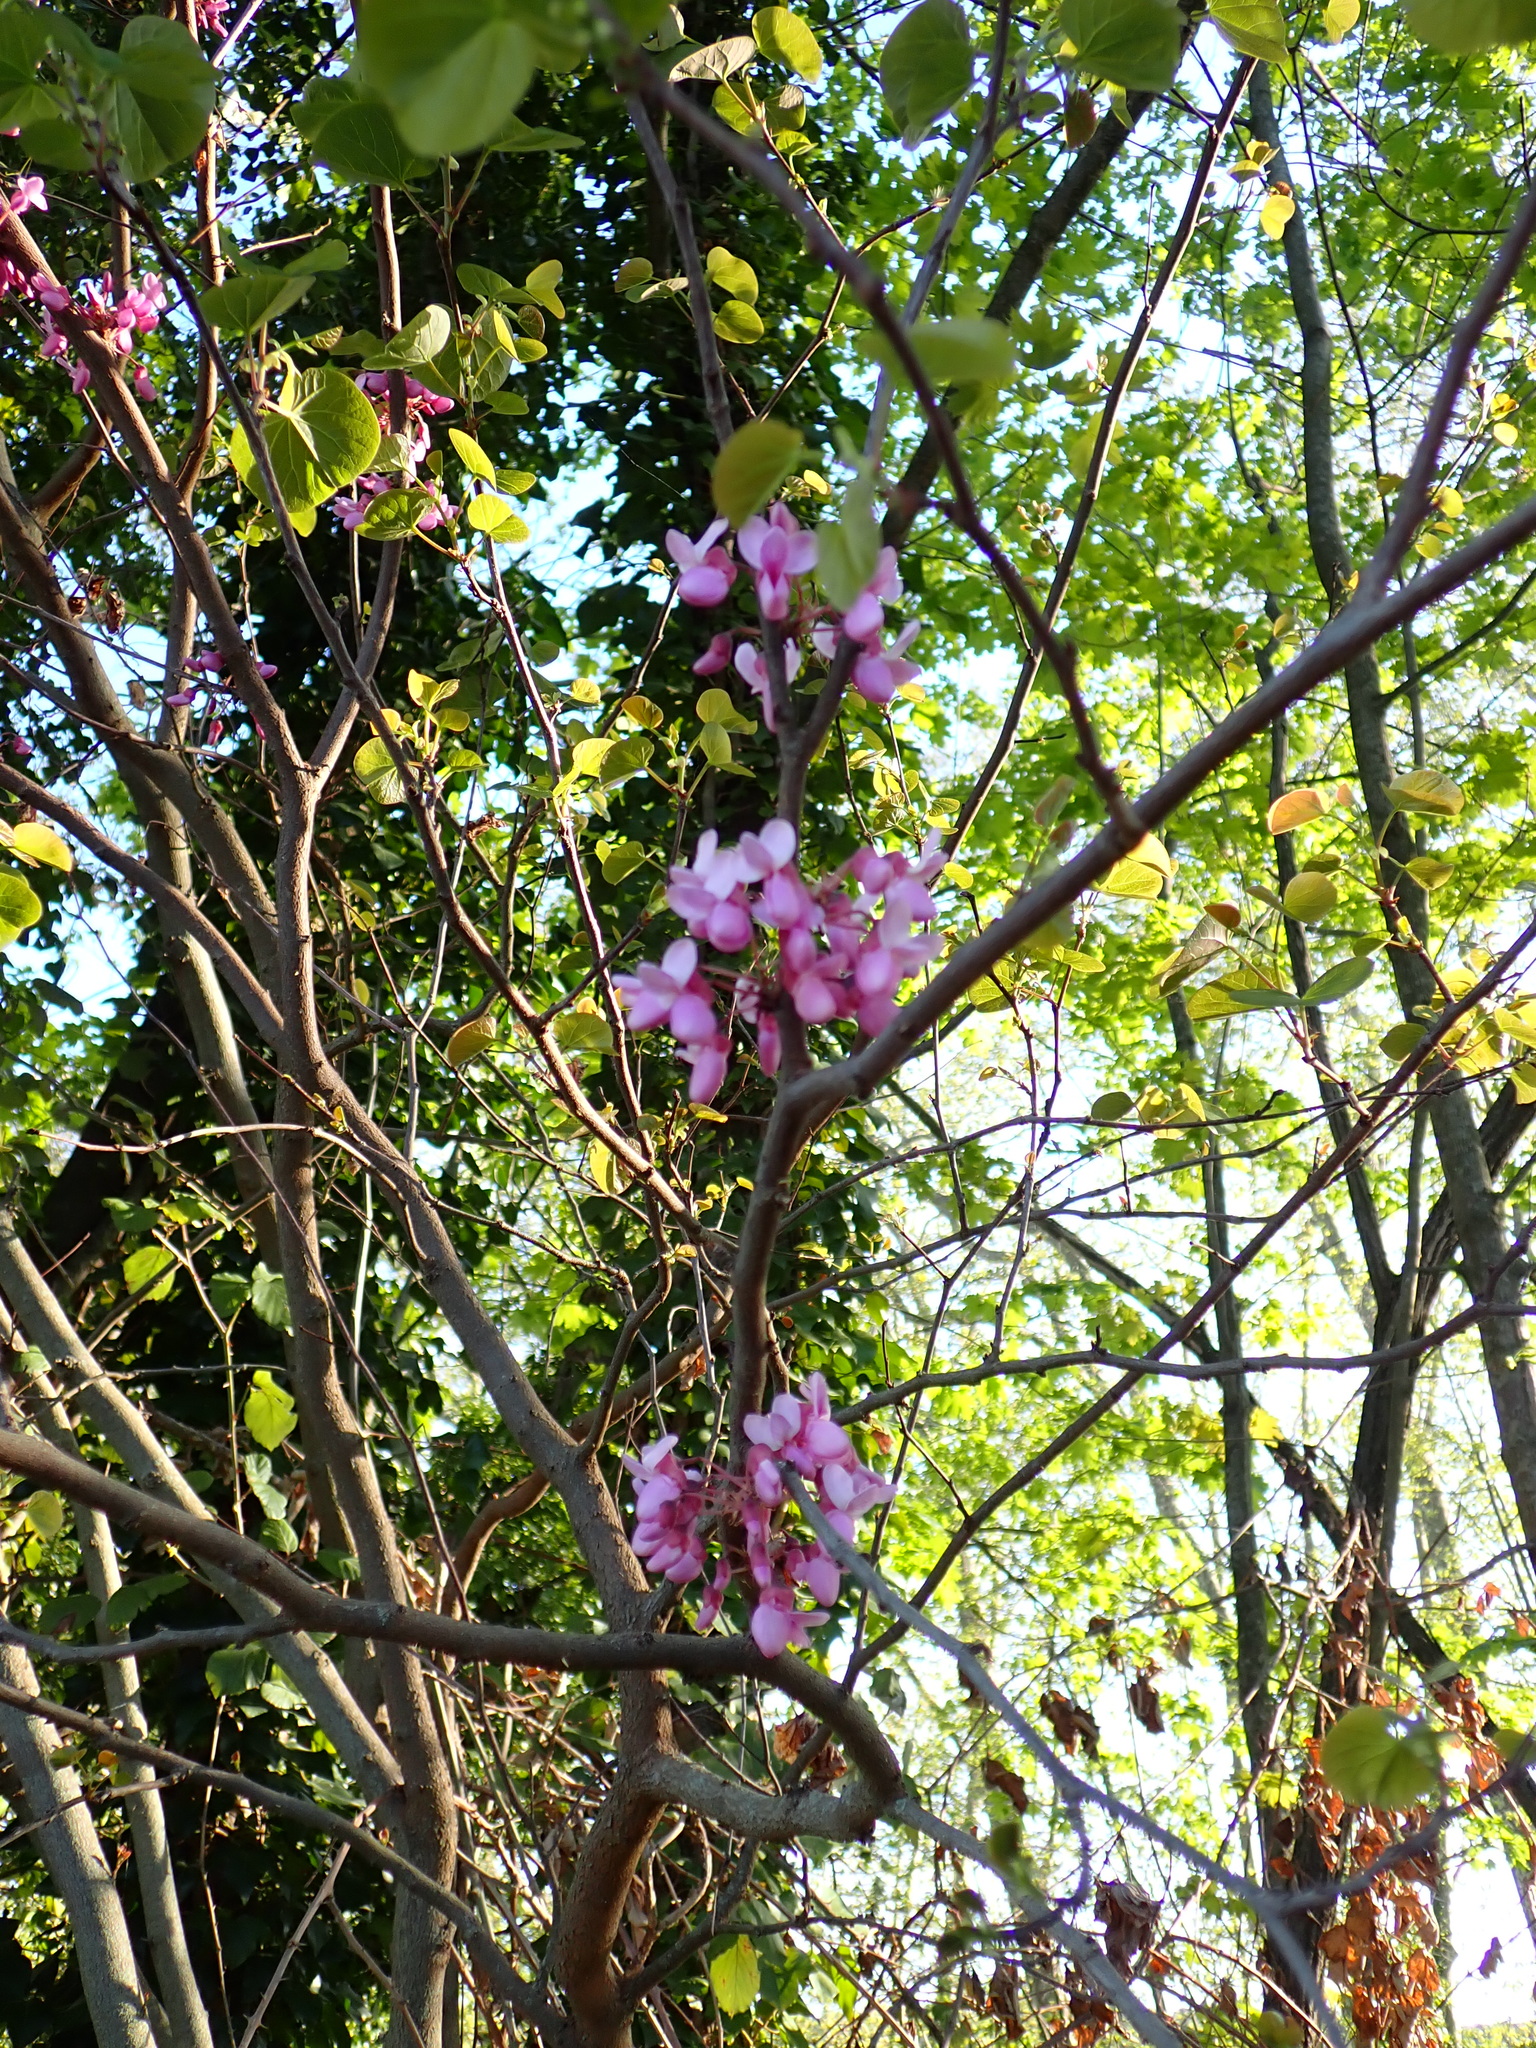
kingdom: Plantae
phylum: Tracheophyta
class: Magnoliopsida
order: Fabales
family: Fabaceae
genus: Cercis
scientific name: Cercis siliquastrum
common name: Judas tree
